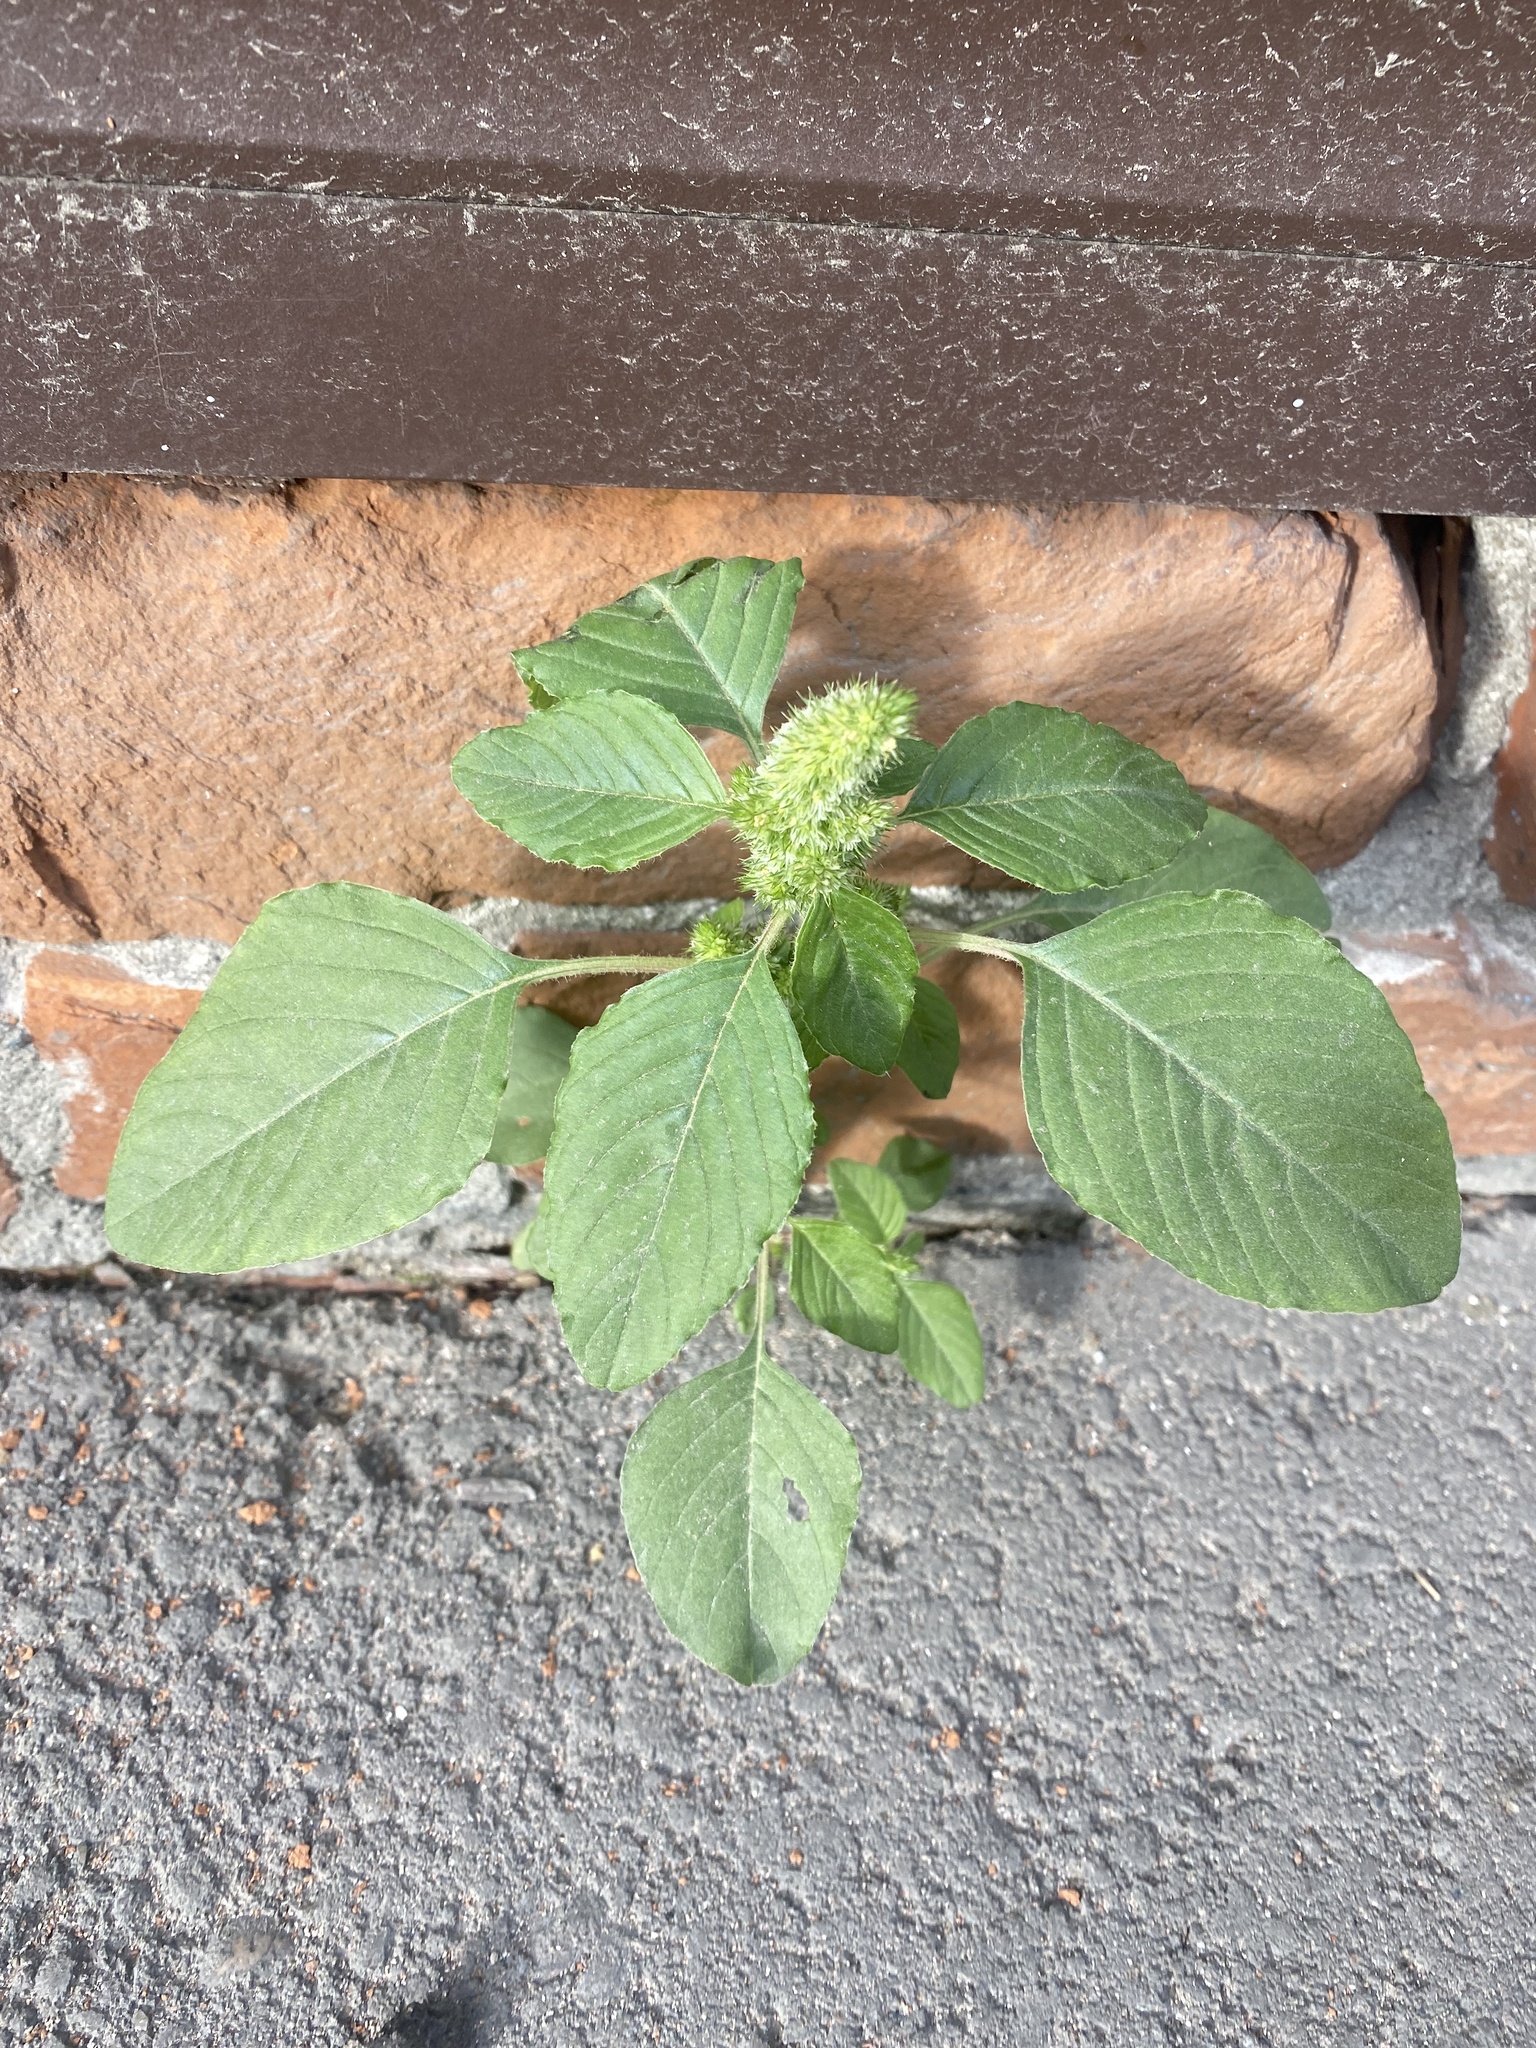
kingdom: Plantae
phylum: Tracheophyta
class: Magnoliopsida
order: Caryophyllales
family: Amaranthaceae
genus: Amaranthus
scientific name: Amaranthus retroflexus
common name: Redroot amaranth
